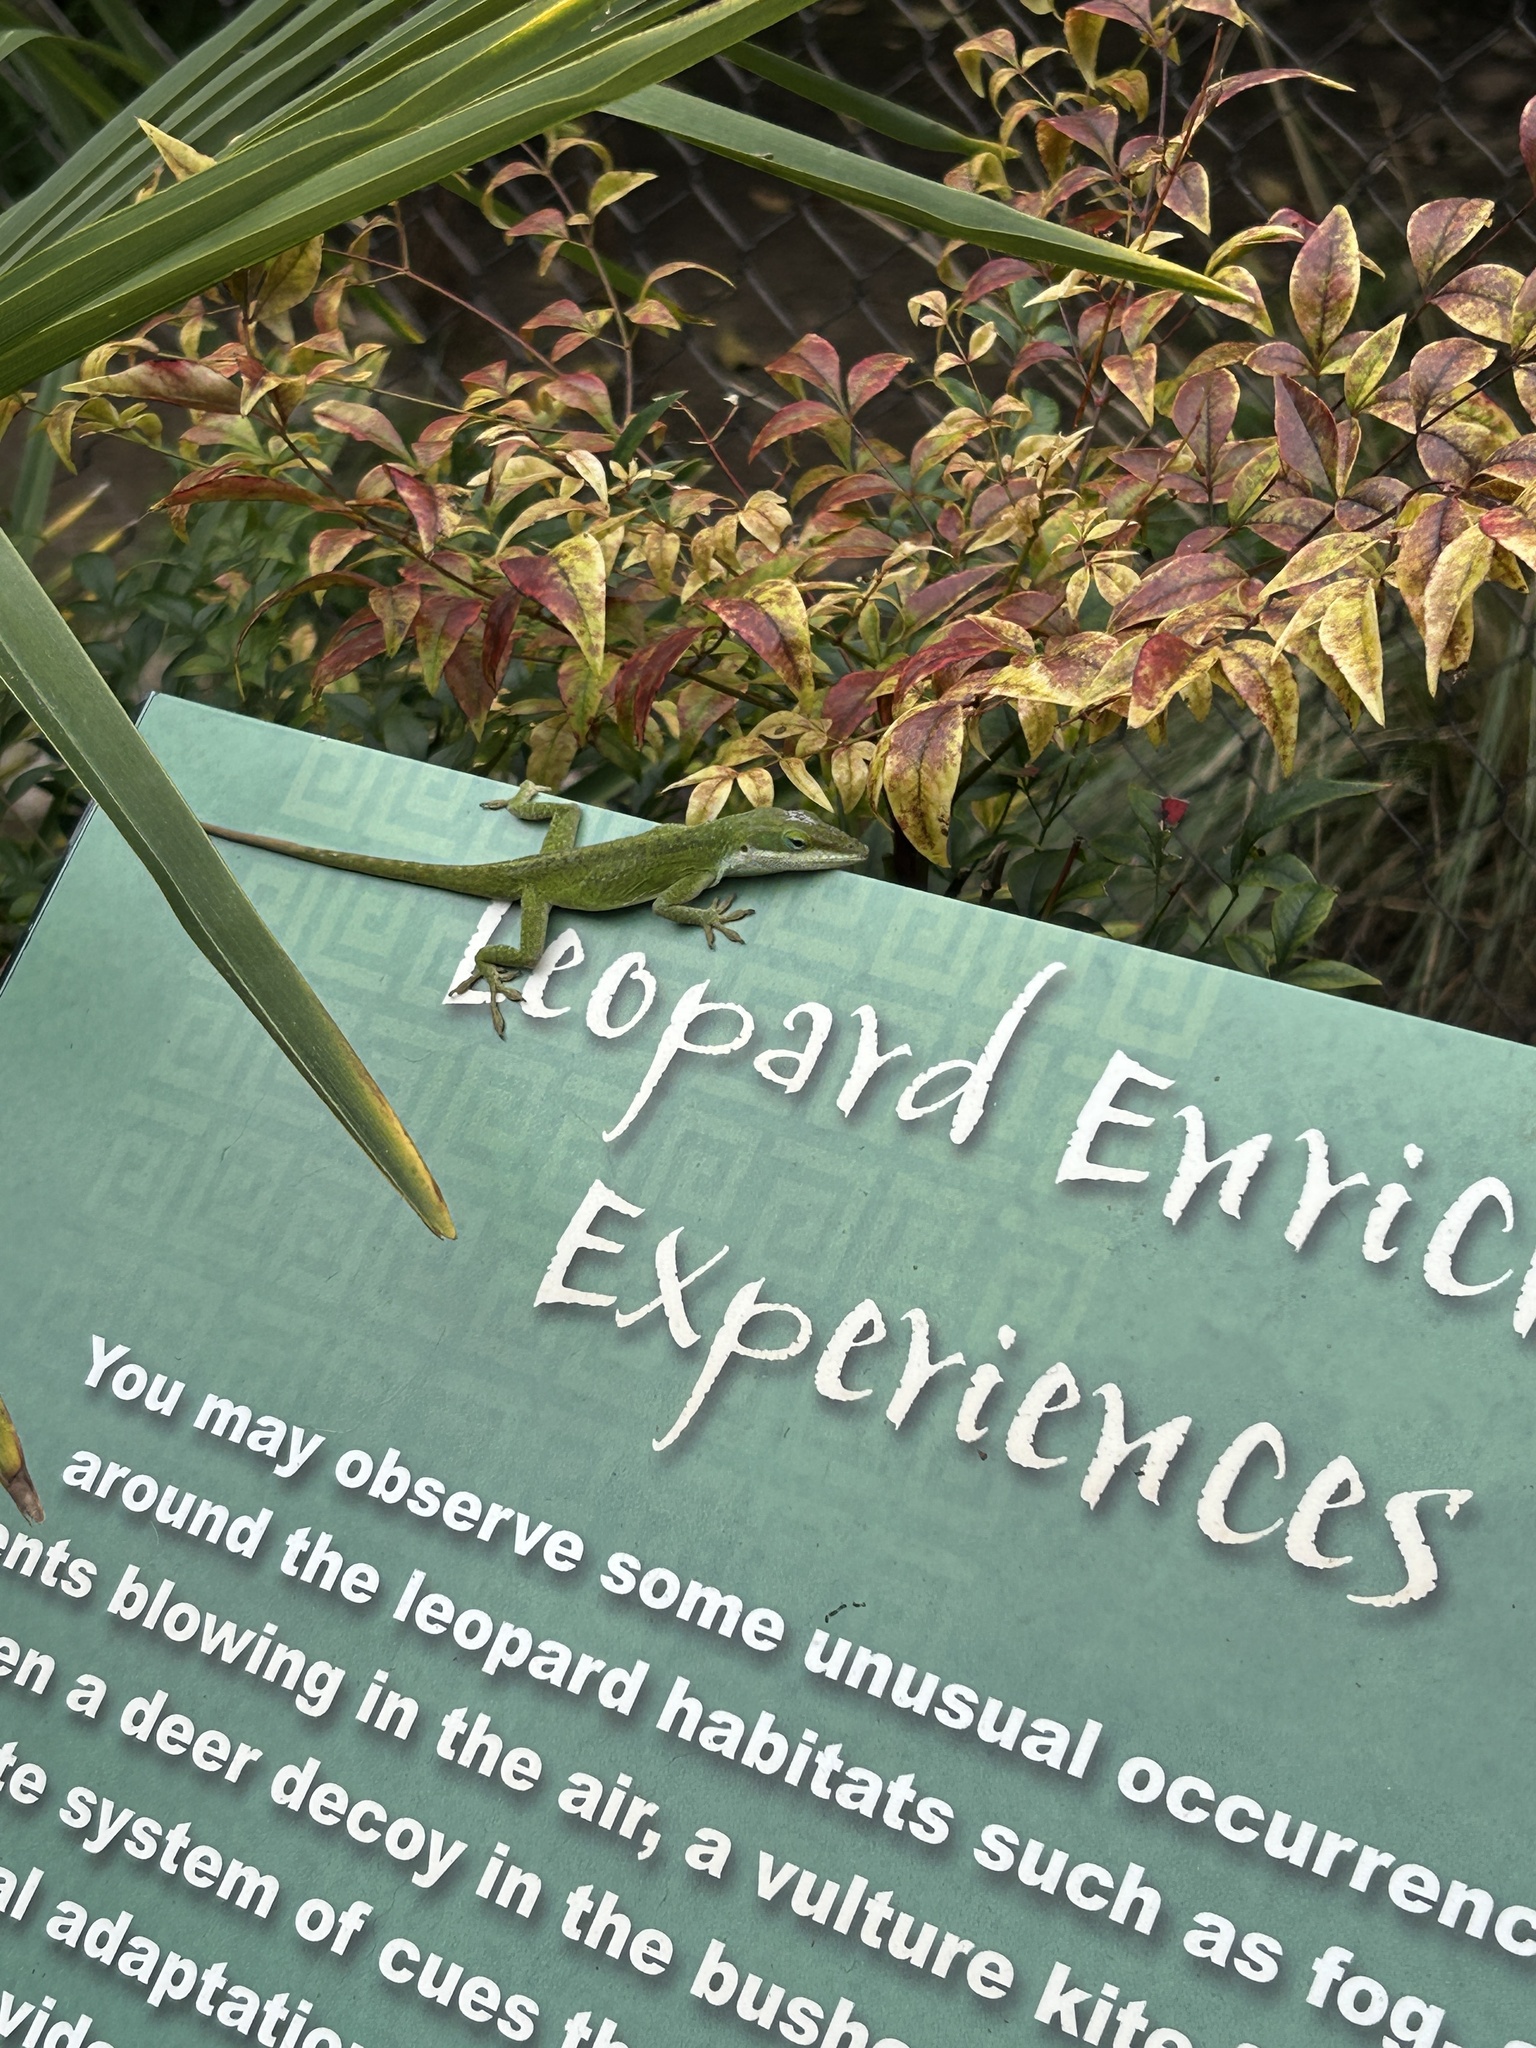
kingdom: Animalia
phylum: Chordata
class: Squamata
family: Dactyloidae
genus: Anolis
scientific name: Anolis carolinensis
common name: Green anole
